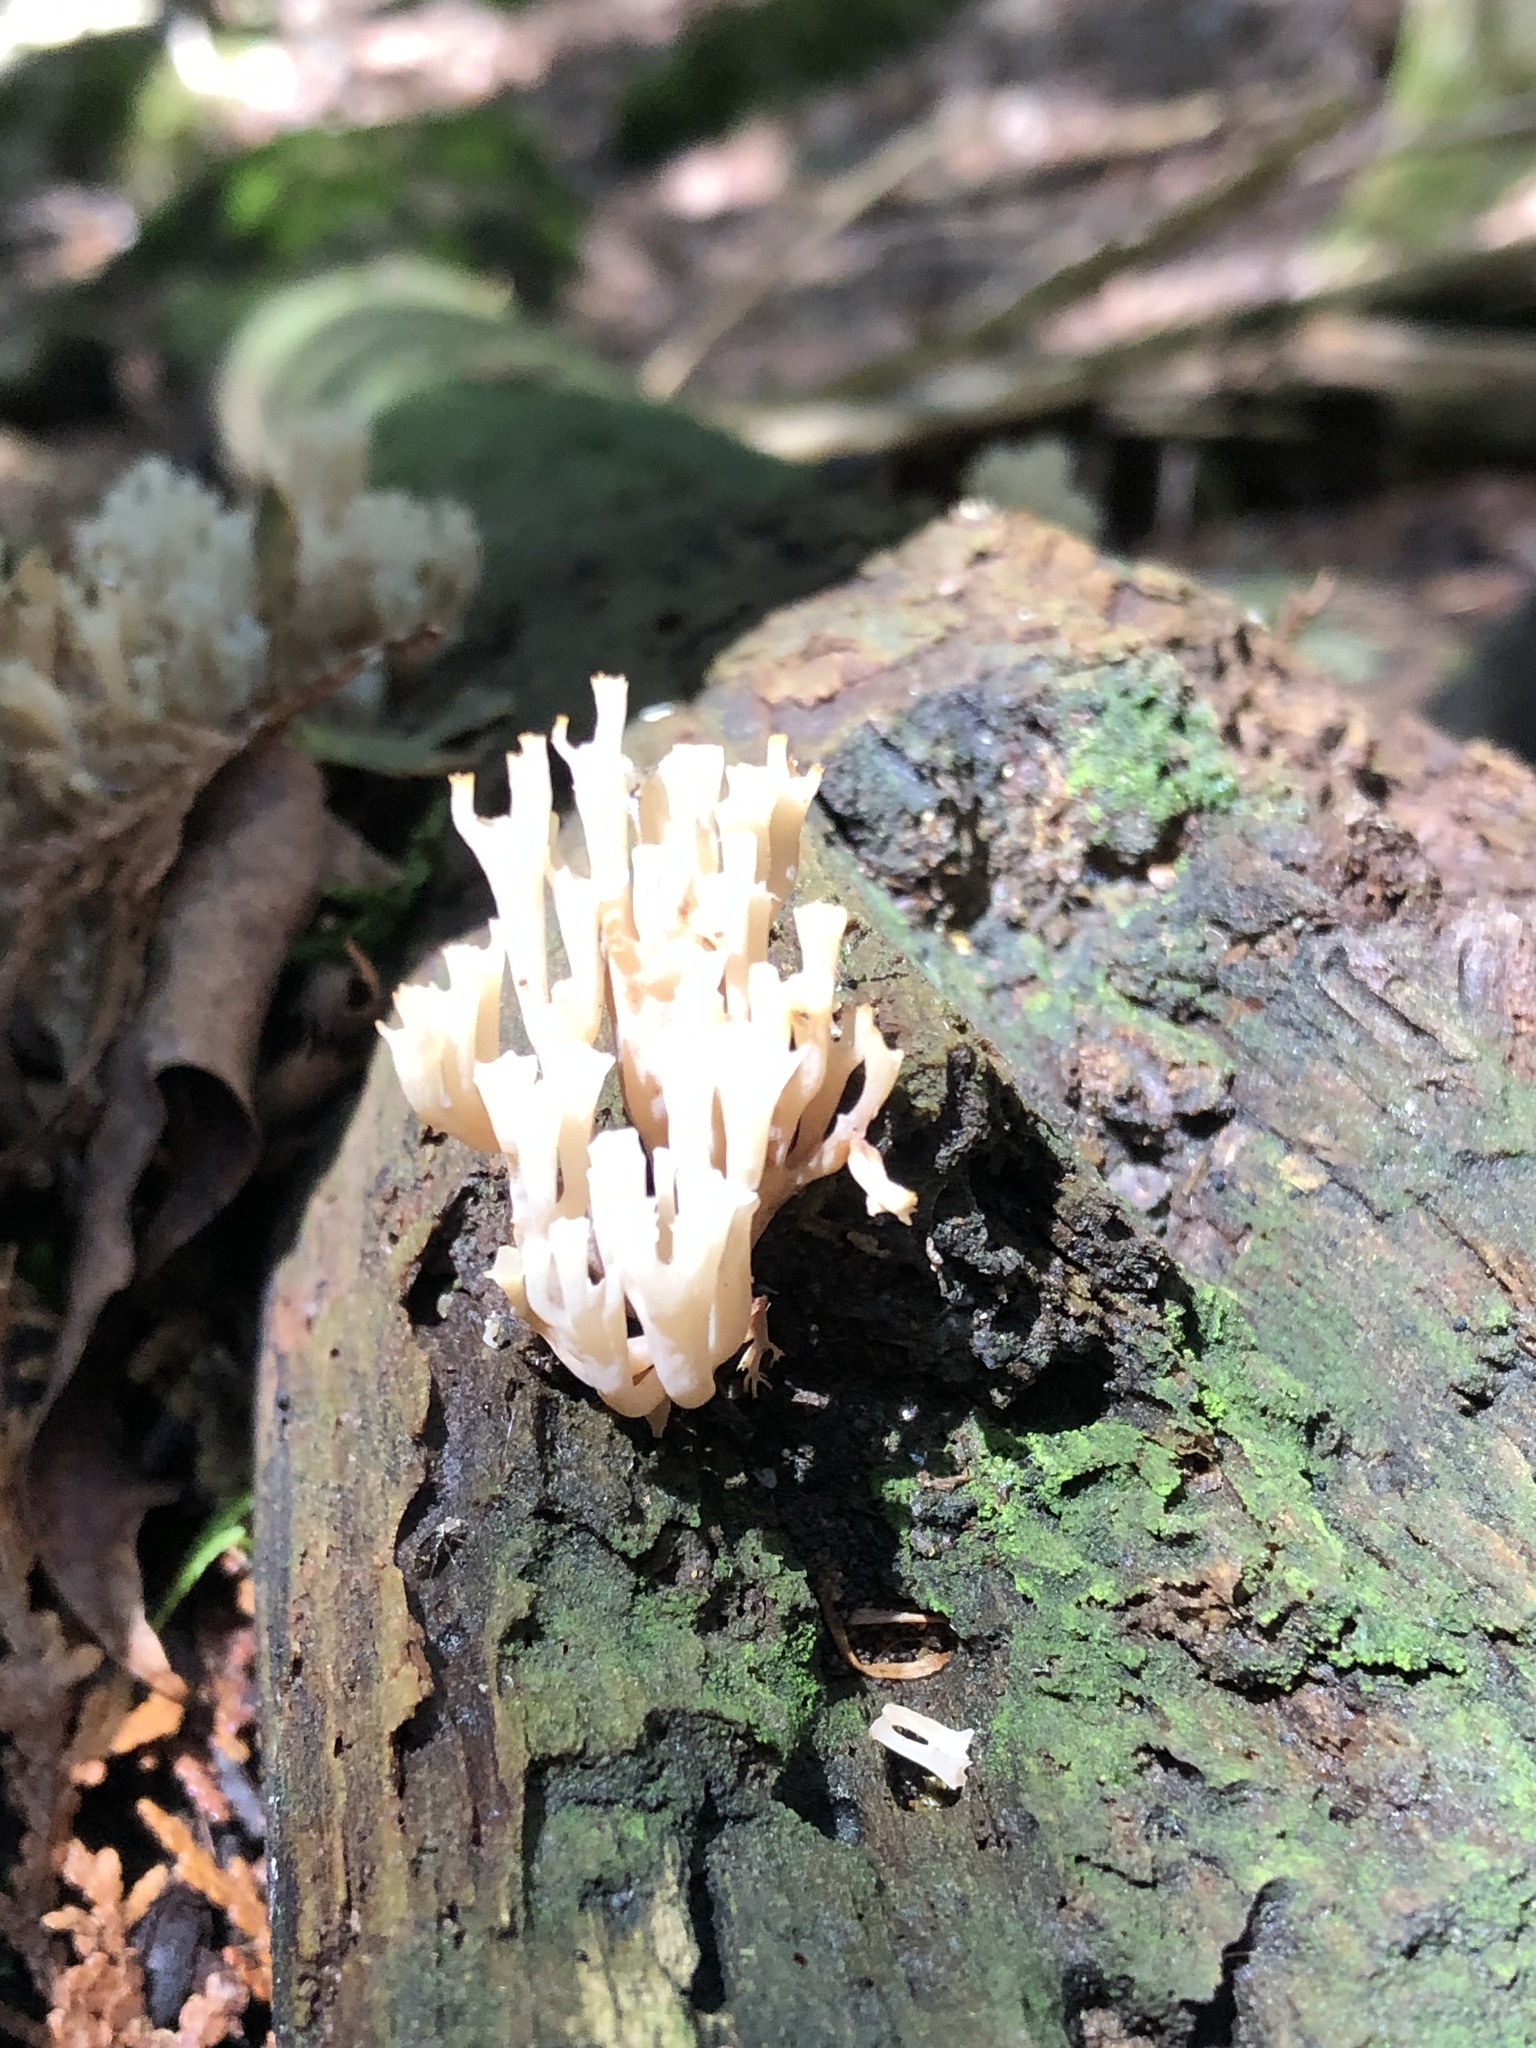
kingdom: Fungi
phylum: Basidiomycota
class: Agaricomycetes
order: Russulales
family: Auriscalpiaceae
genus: Artomyces
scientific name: Artomyces pyxidatus
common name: Crown-tipped coral fungus
